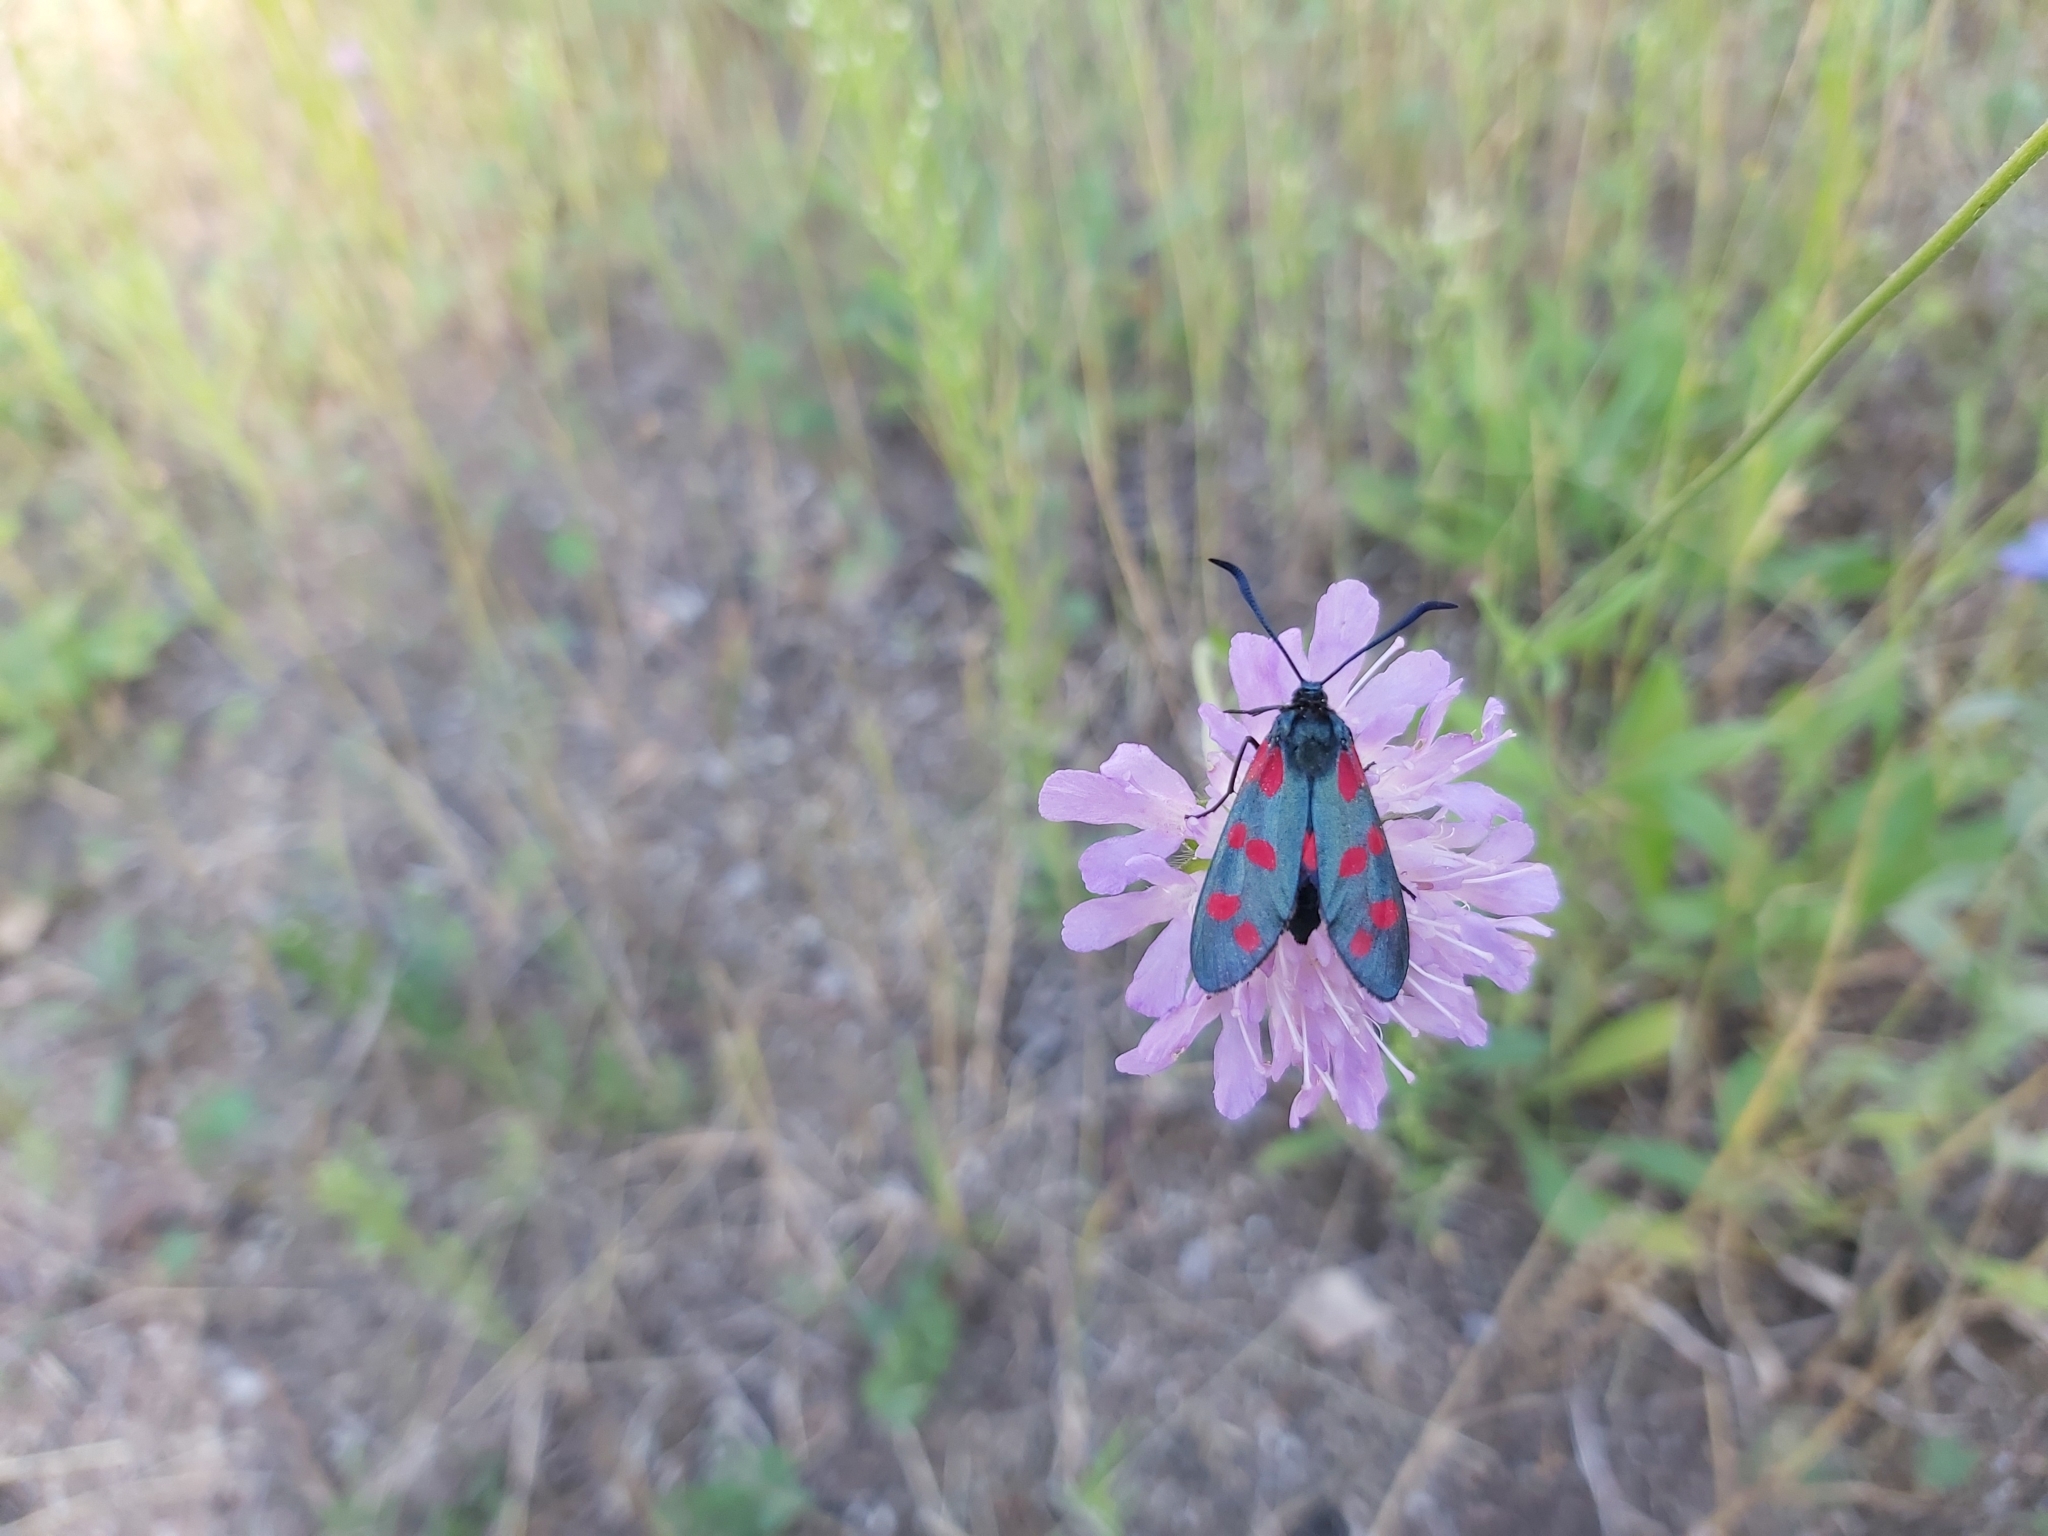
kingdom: Animalia
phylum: Arthropoda
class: Insecta
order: Lepidoptera
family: Zygaenidae
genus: Zygaena
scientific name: Zygaena filipendulae
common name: Six-spot burnet
